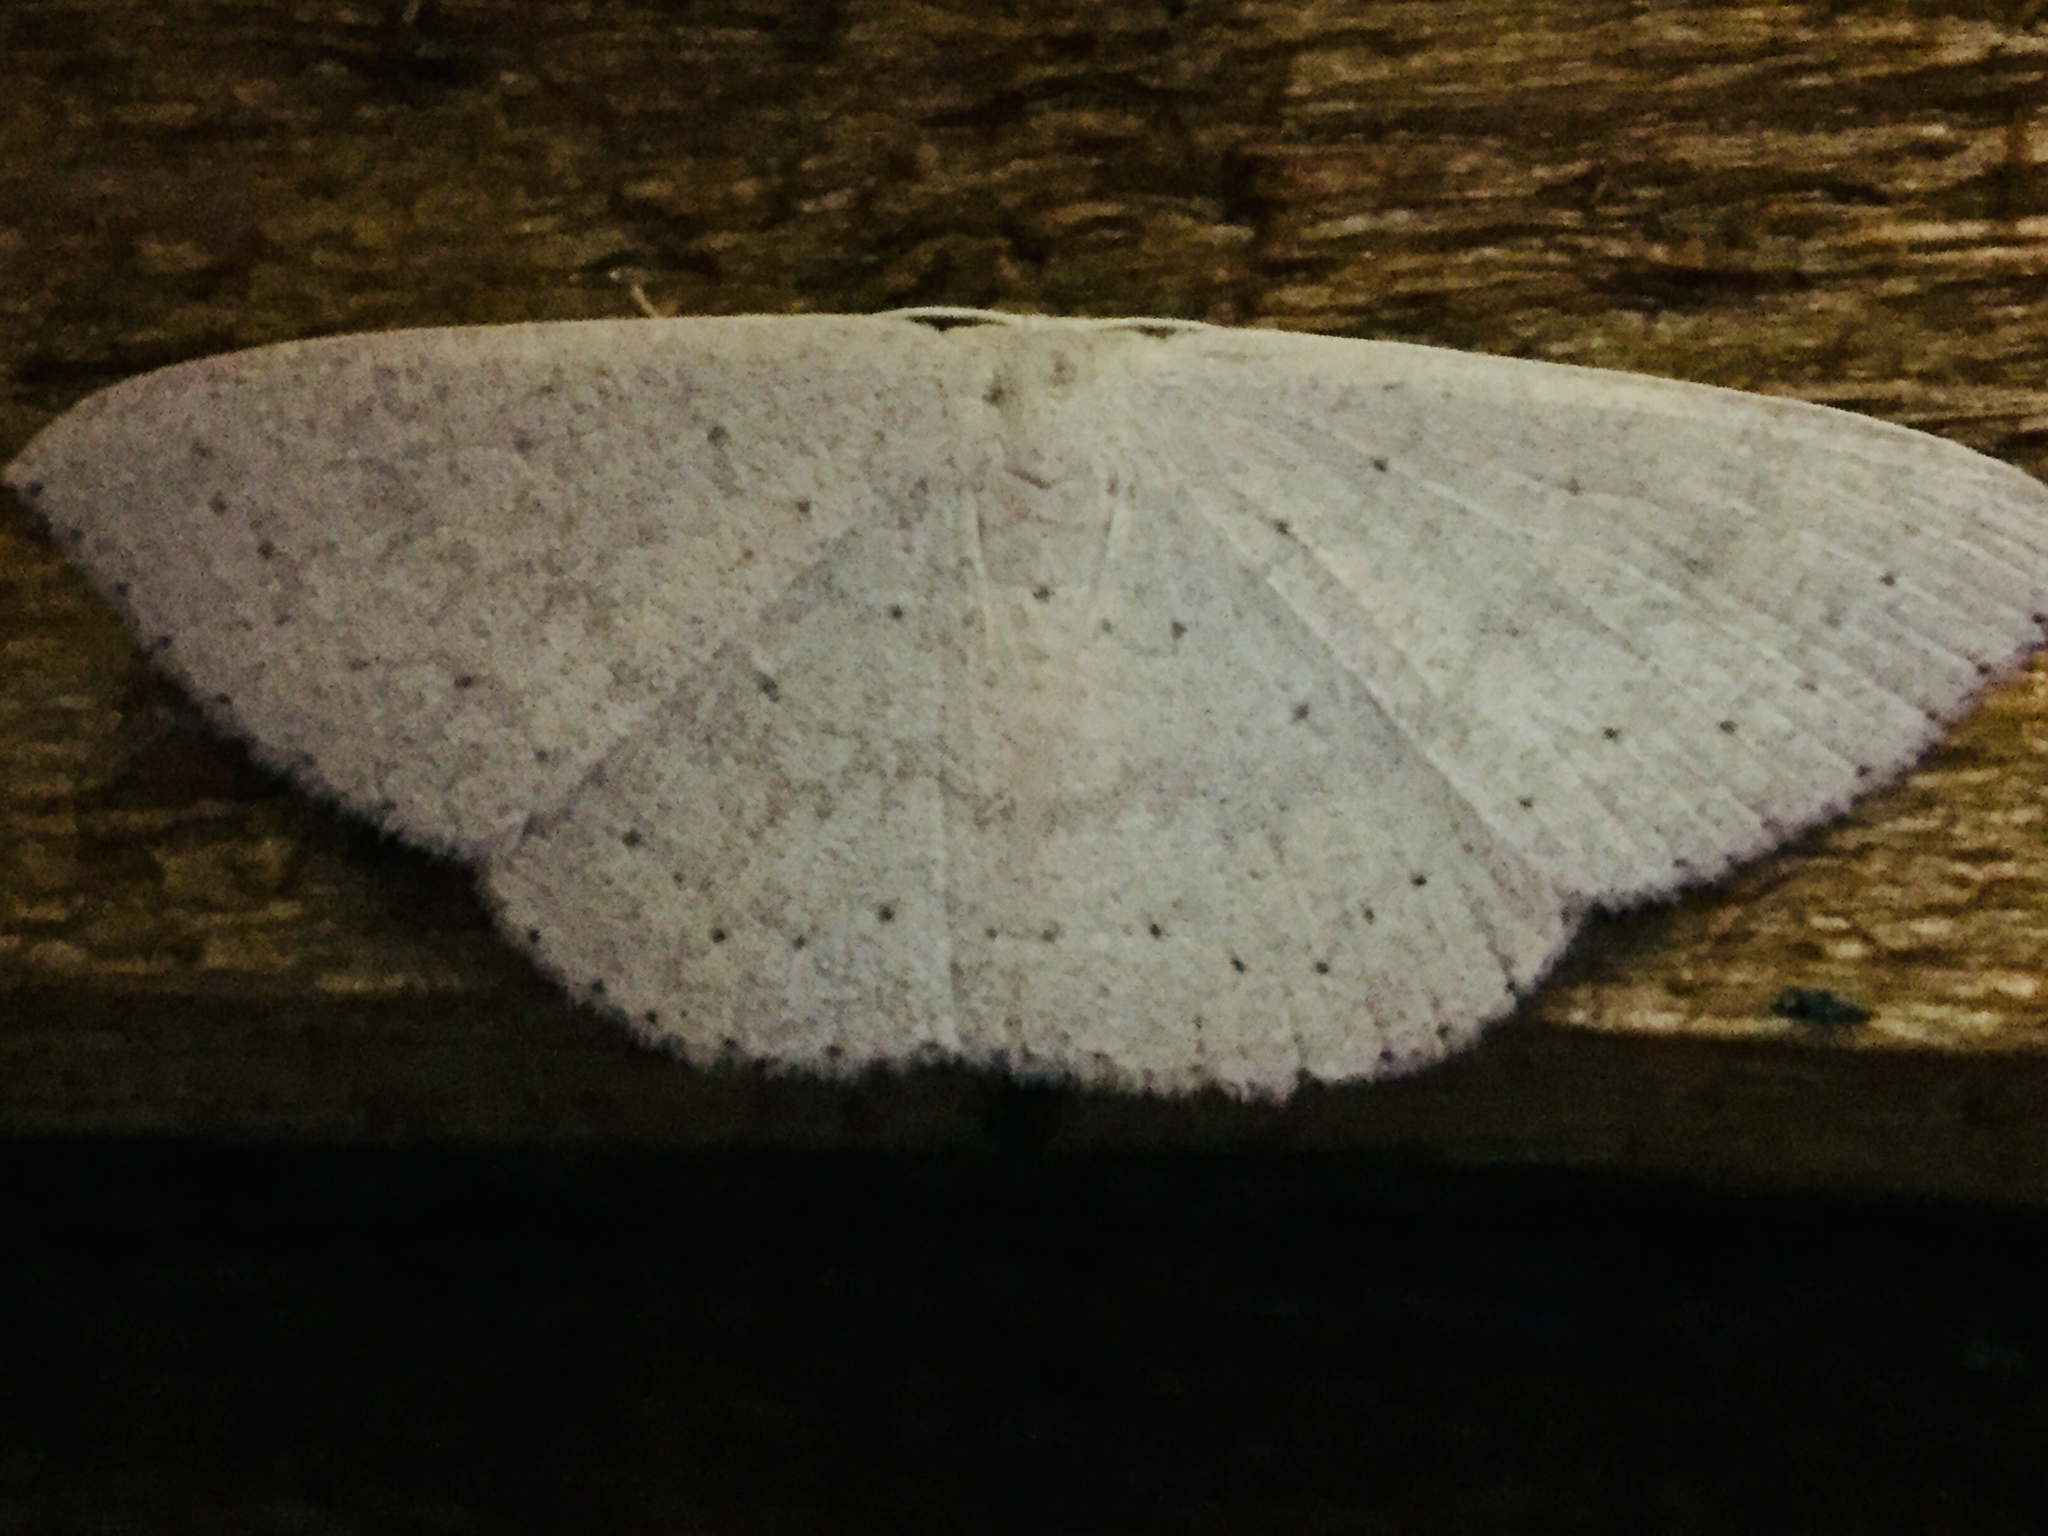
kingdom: Animalia
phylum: Arthropoda
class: Insecta
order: Lepidoptera
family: Geometridae
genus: Cyclophora
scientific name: Cyclophora obstataria
